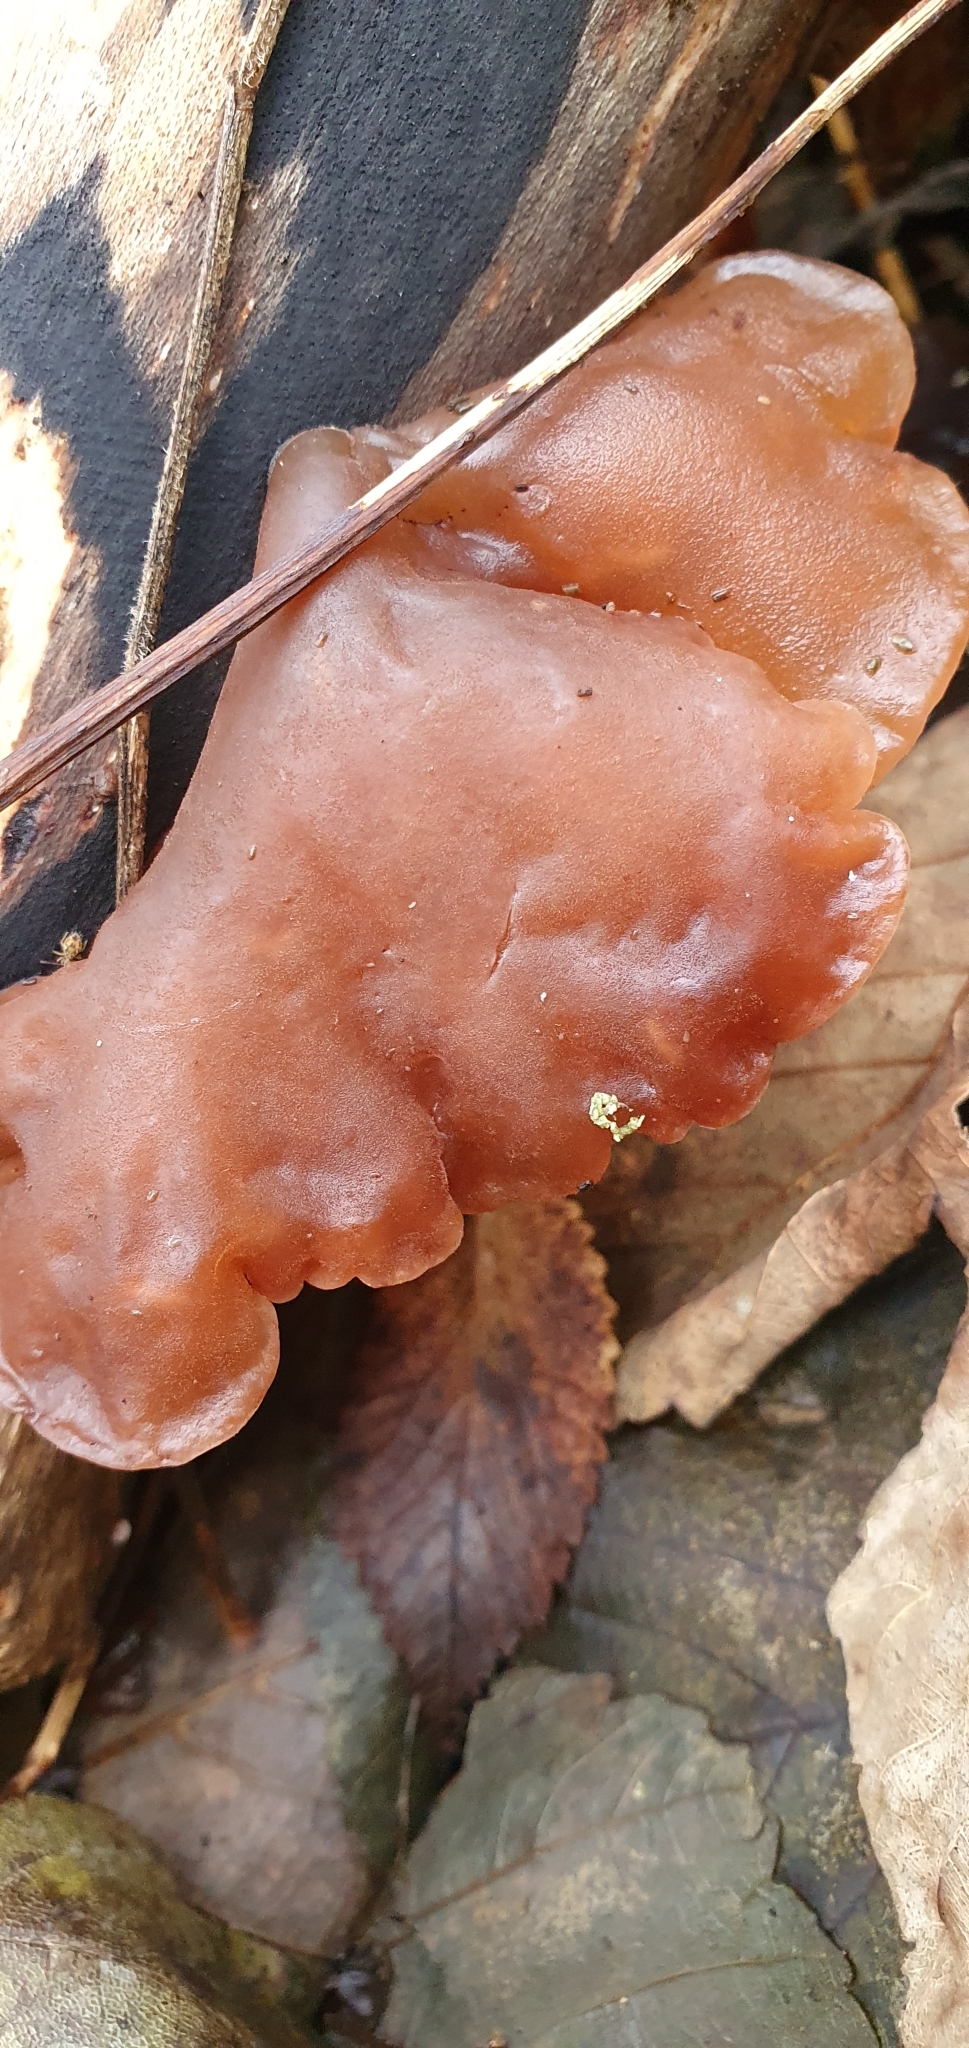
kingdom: Fungi
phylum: Basidiomycota
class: Agaricomycetes
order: Auriculariales
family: Auriculariaceae
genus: Auricularia
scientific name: Auricularia auricula-judae
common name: Jelly ear
